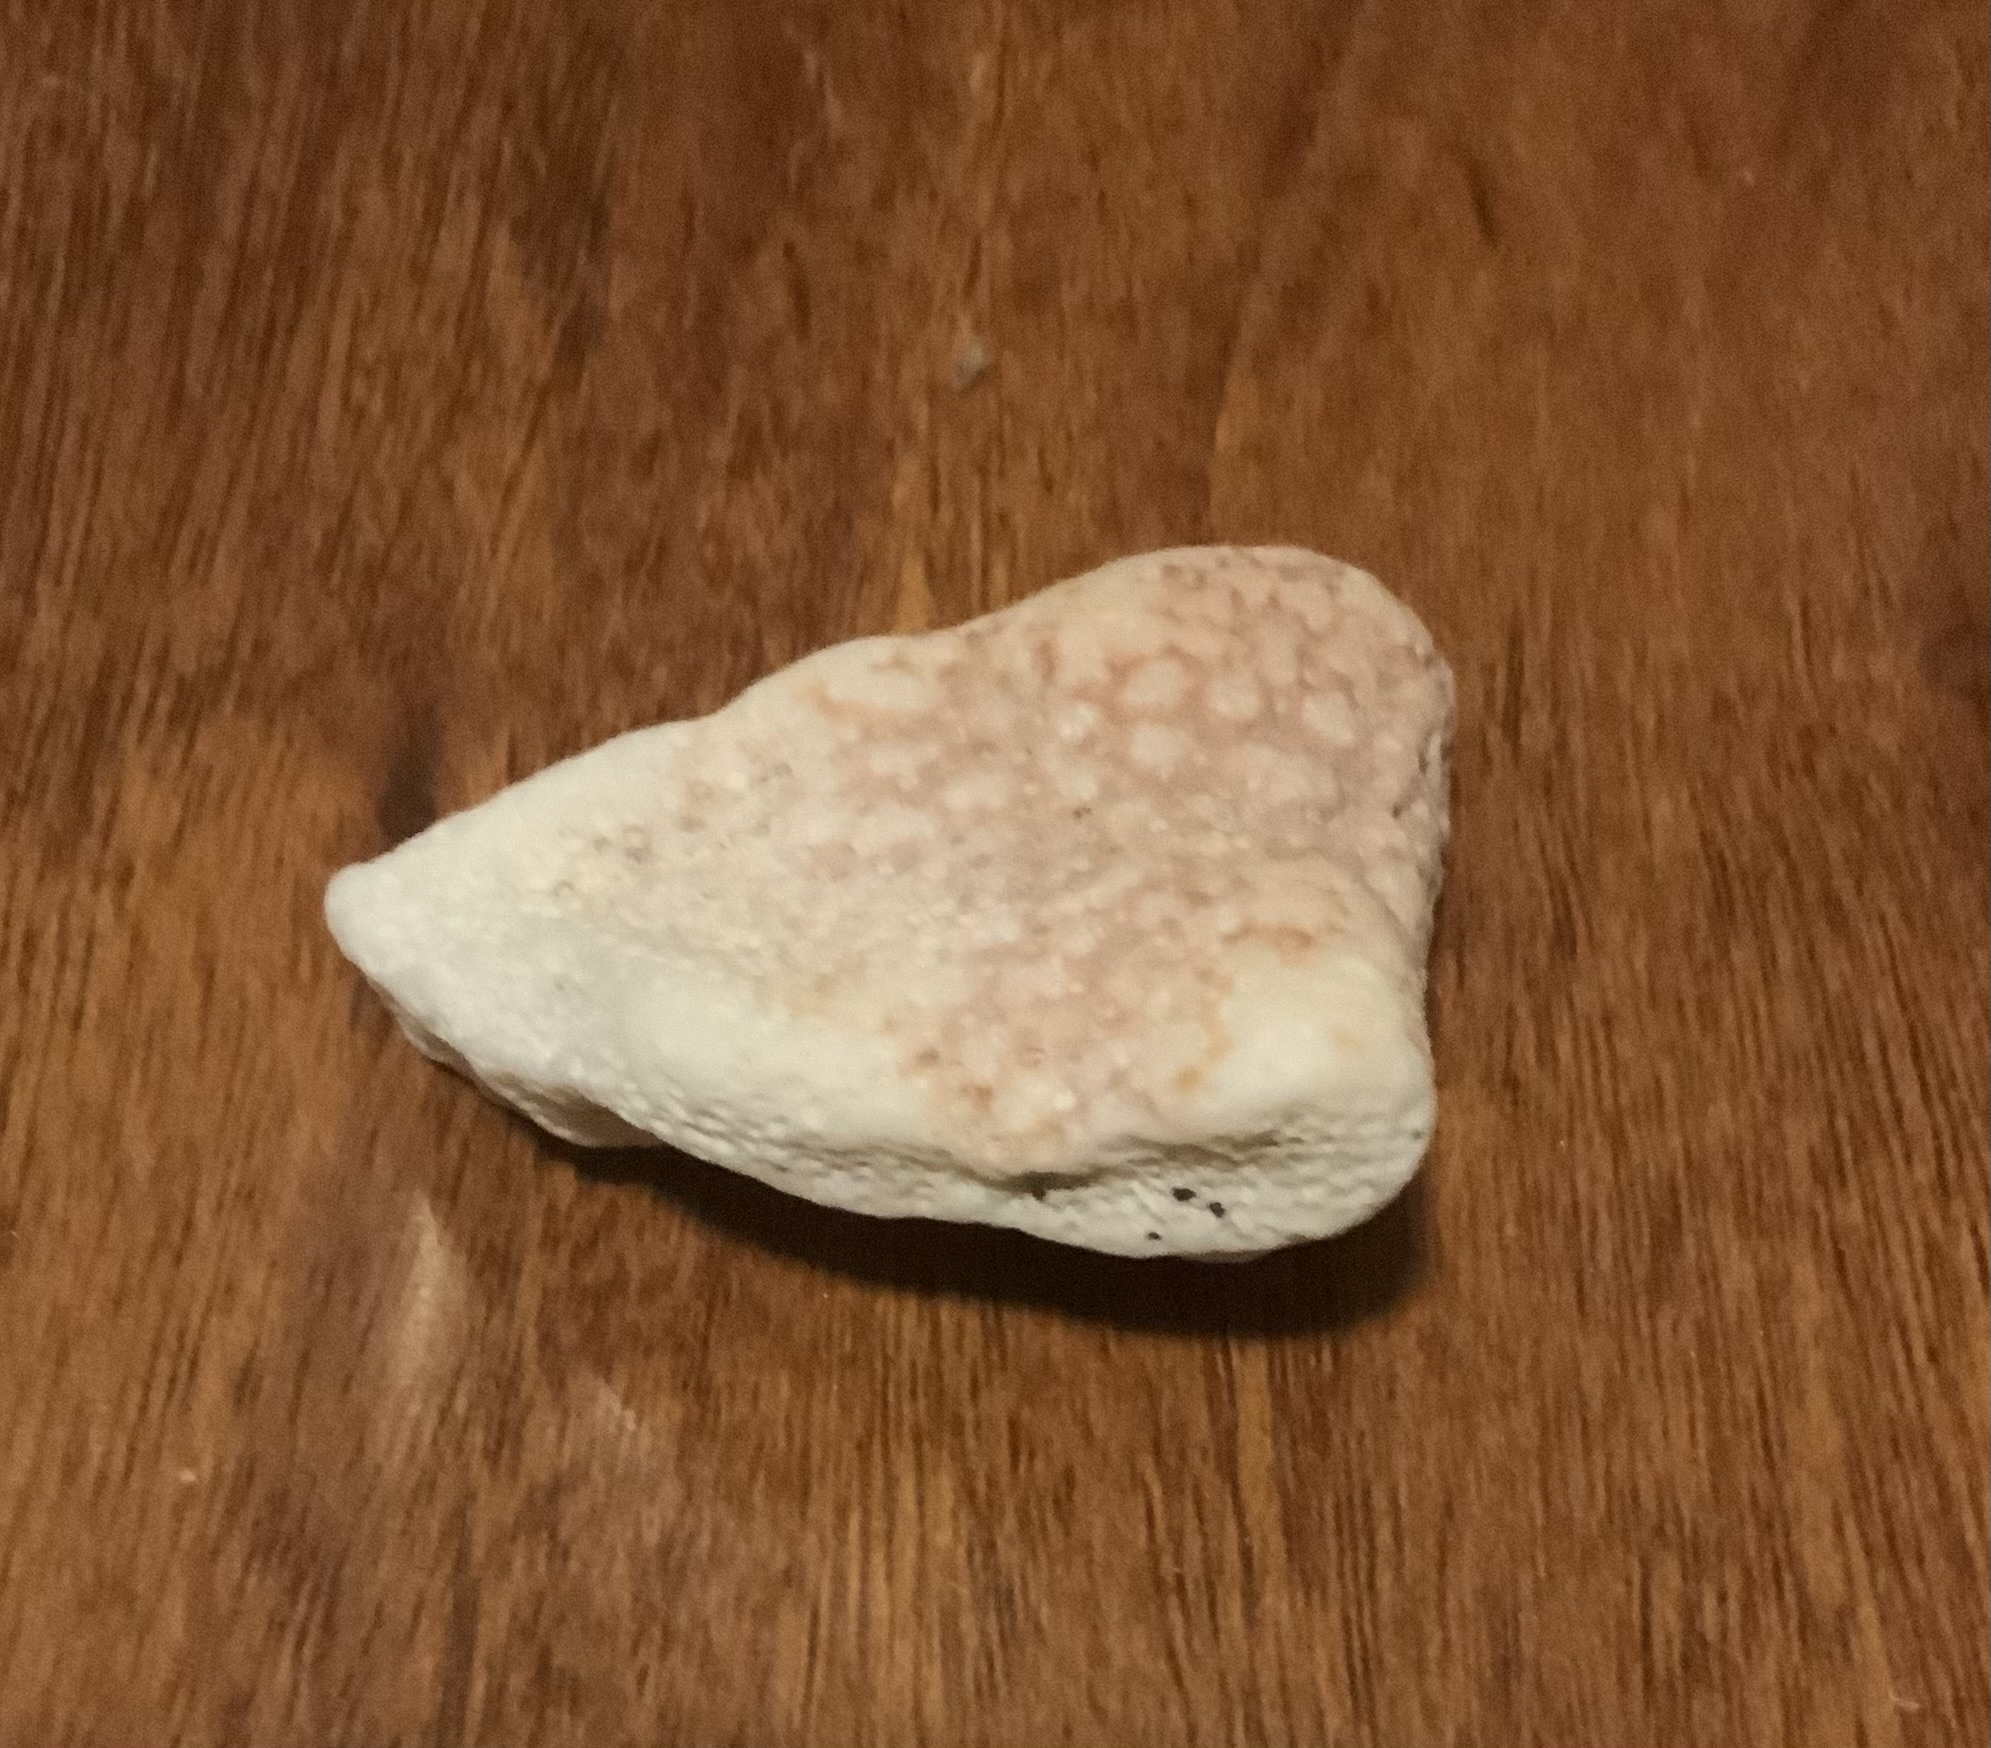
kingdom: Animalia
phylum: Cnidaria
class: Anthozoa
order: Scleractinia
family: Pocilloporidae
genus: Pocillopora
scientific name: Pocillopora meandrina
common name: Cauliflower coral
